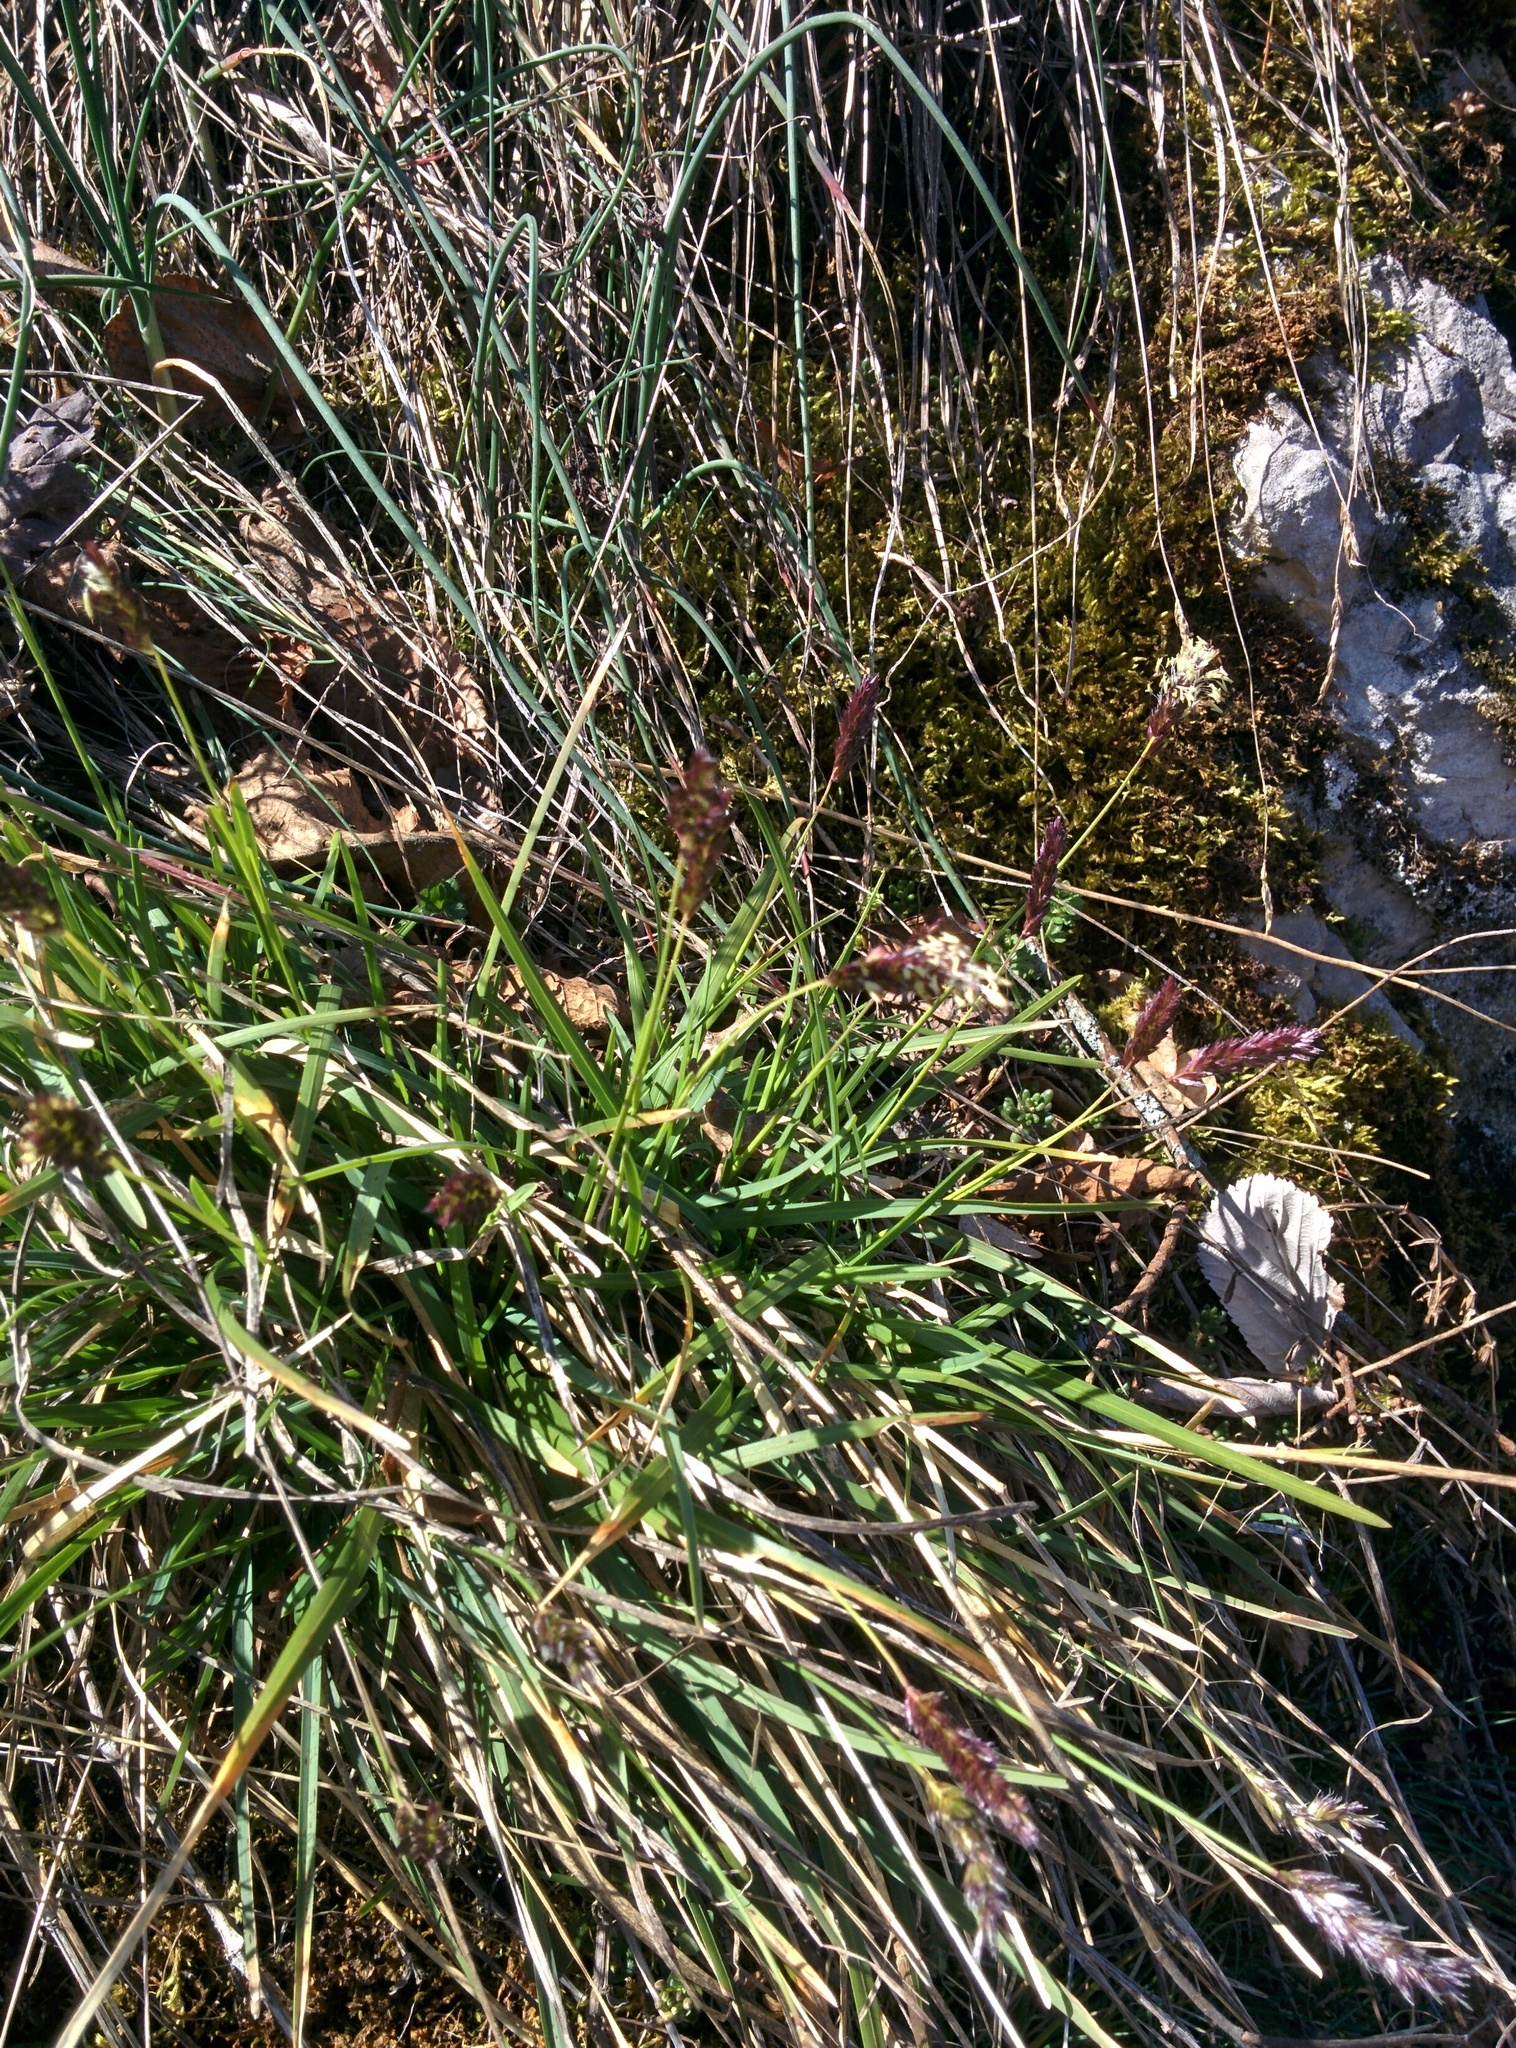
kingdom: Plantae
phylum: Tracheophyta
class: Liliopsida
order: Poales
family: Poaceae
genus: Sesleria
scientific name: Sesleria caerulea
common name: Blue moor-grass
